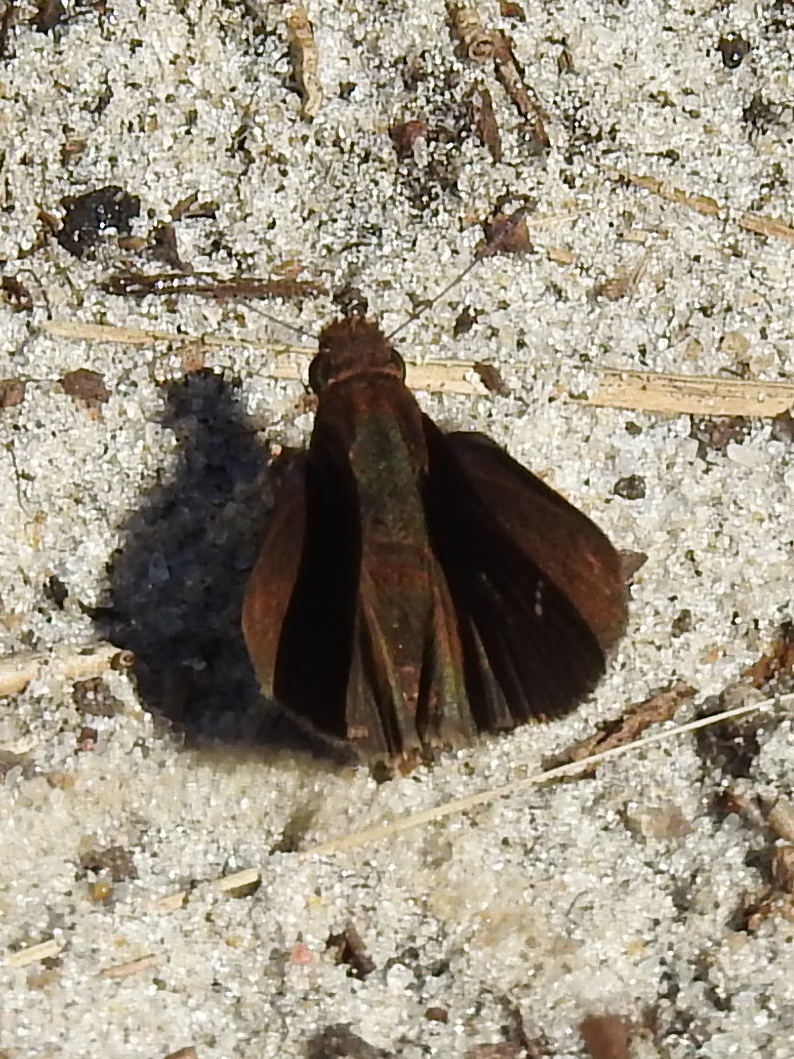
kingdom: Animalia
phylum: Arthropoda
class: Insecta
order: Lepidoptera
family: Hesperiidae
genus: Lerema
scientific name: Lerema accius
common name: Clouded skipper
